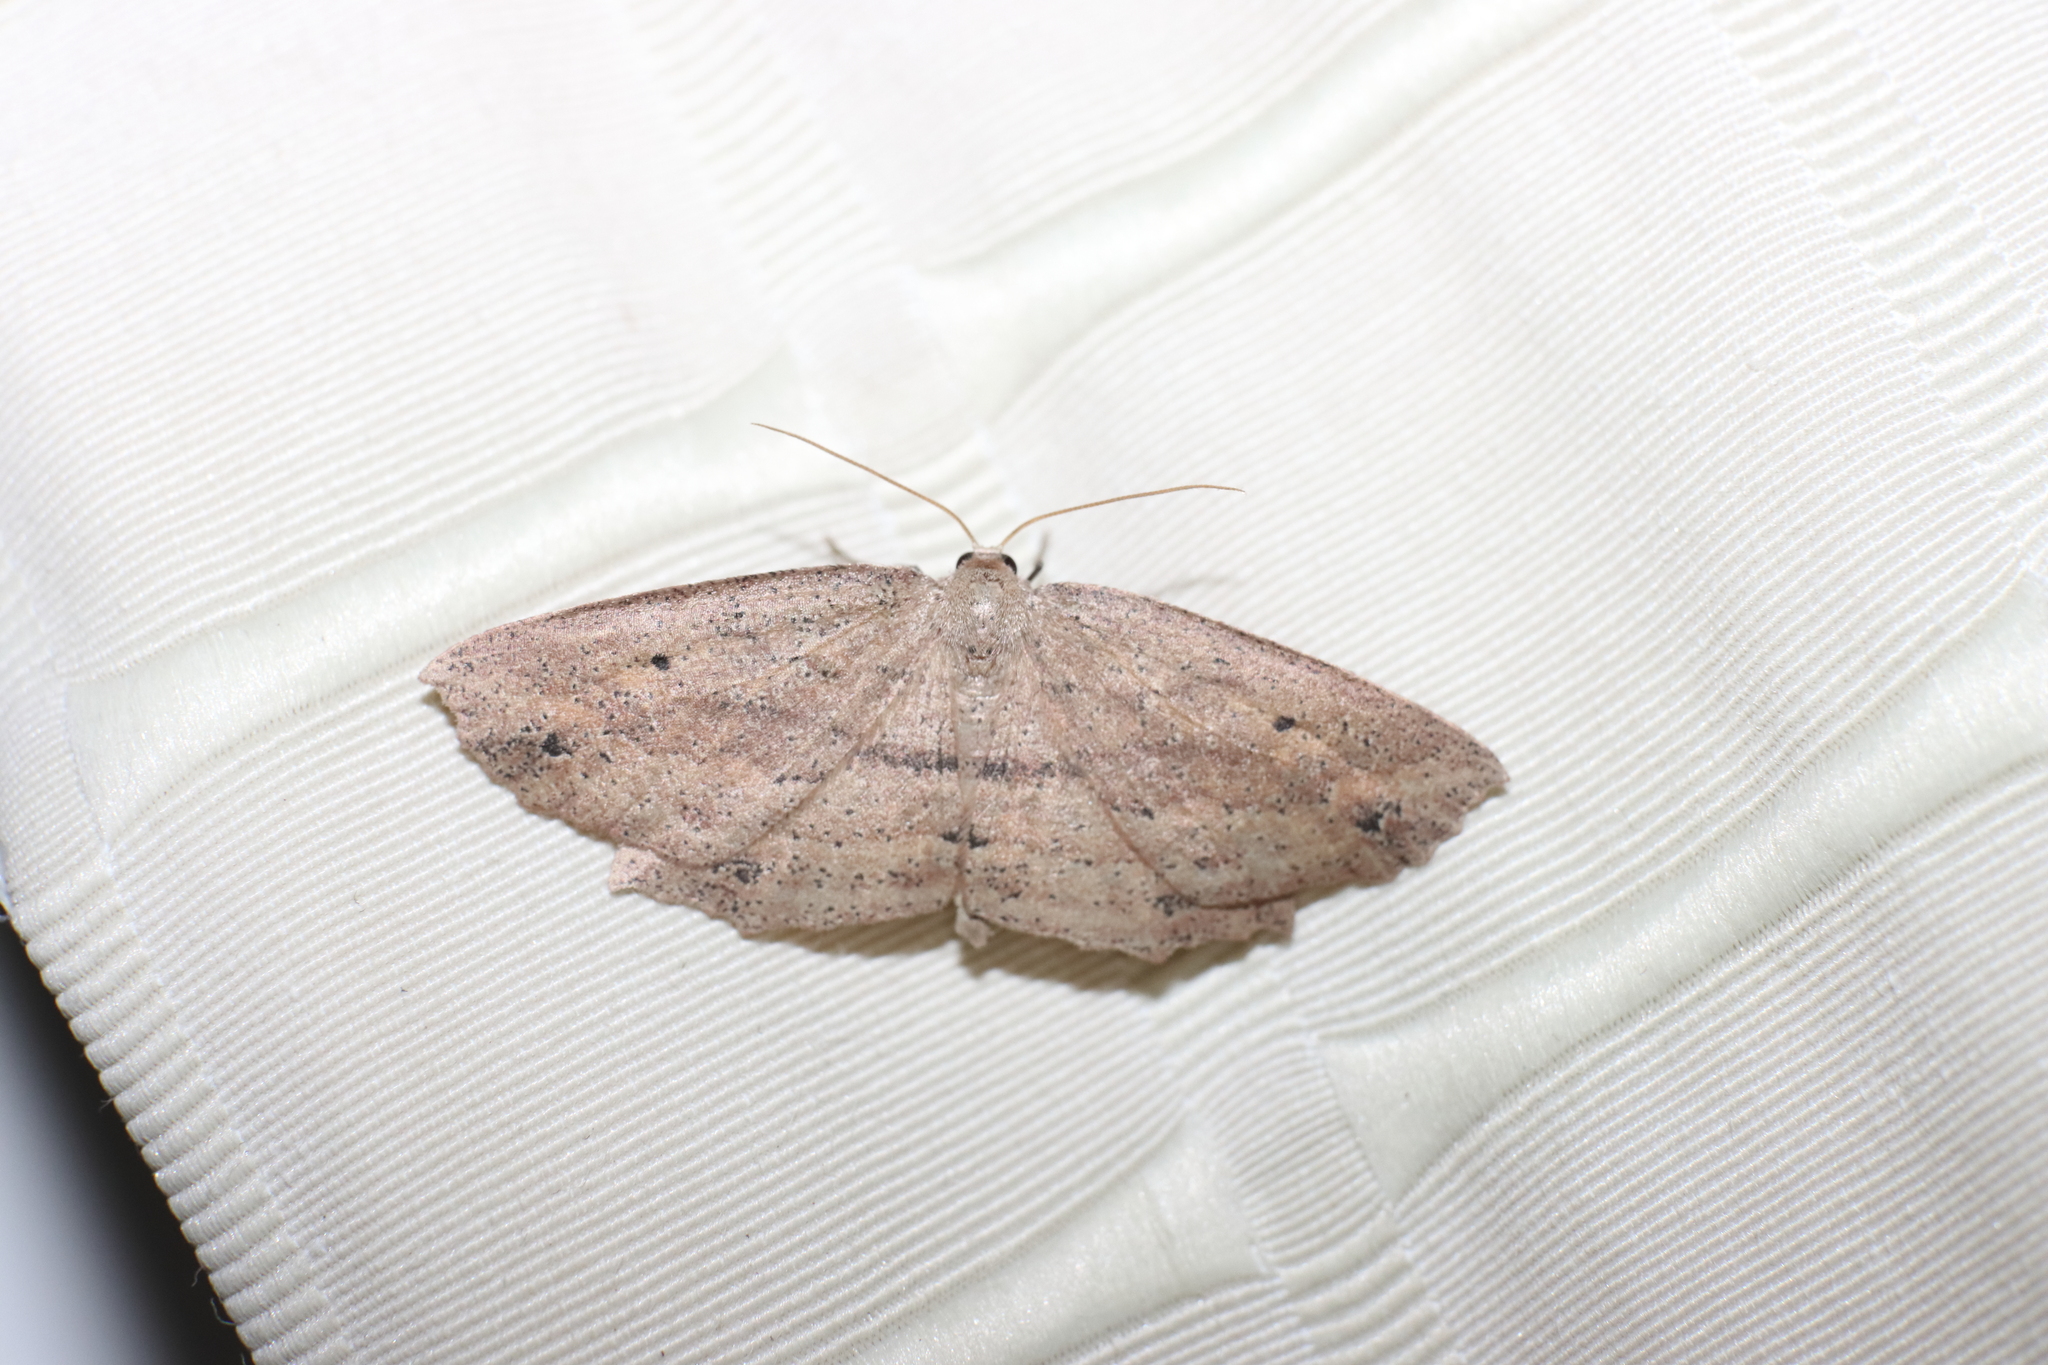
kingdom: Animalia
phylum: Arthropoda
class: Insecta
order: Lepidoptera
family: Geometridae
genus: Xyridacma
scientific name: Xyridacma veronicae
